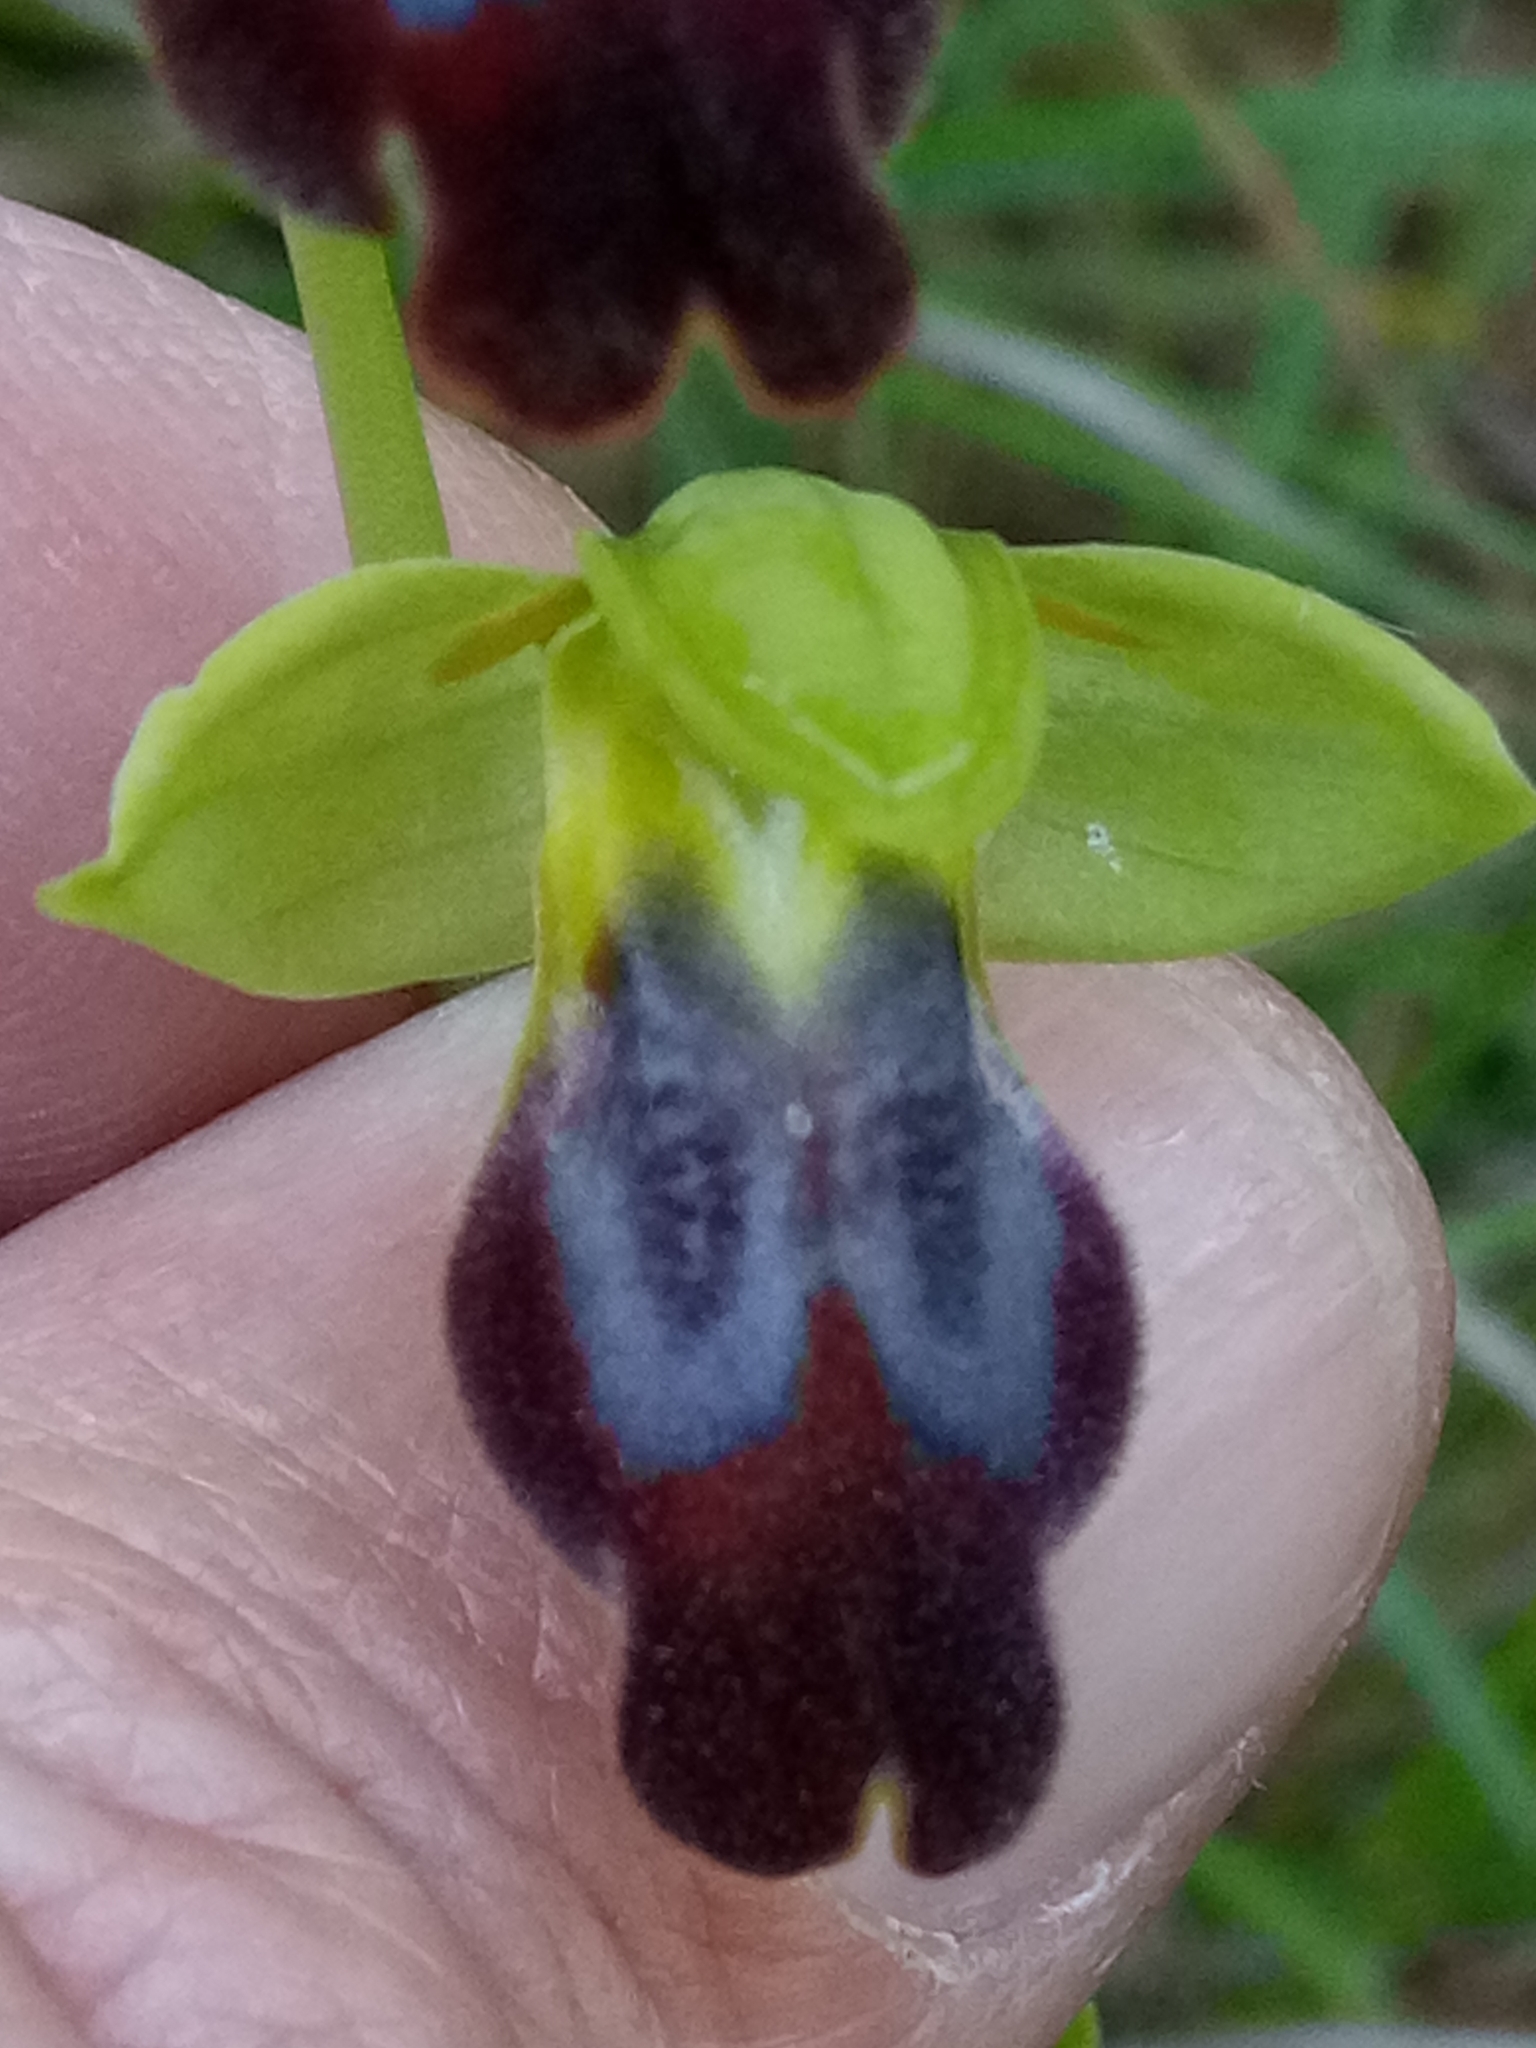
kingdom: Plantae
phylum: Tracheophyta
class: Liliopsida
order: Asparagales
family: Orchidaceae
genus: Ophrys
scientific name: Ophrys fusca
